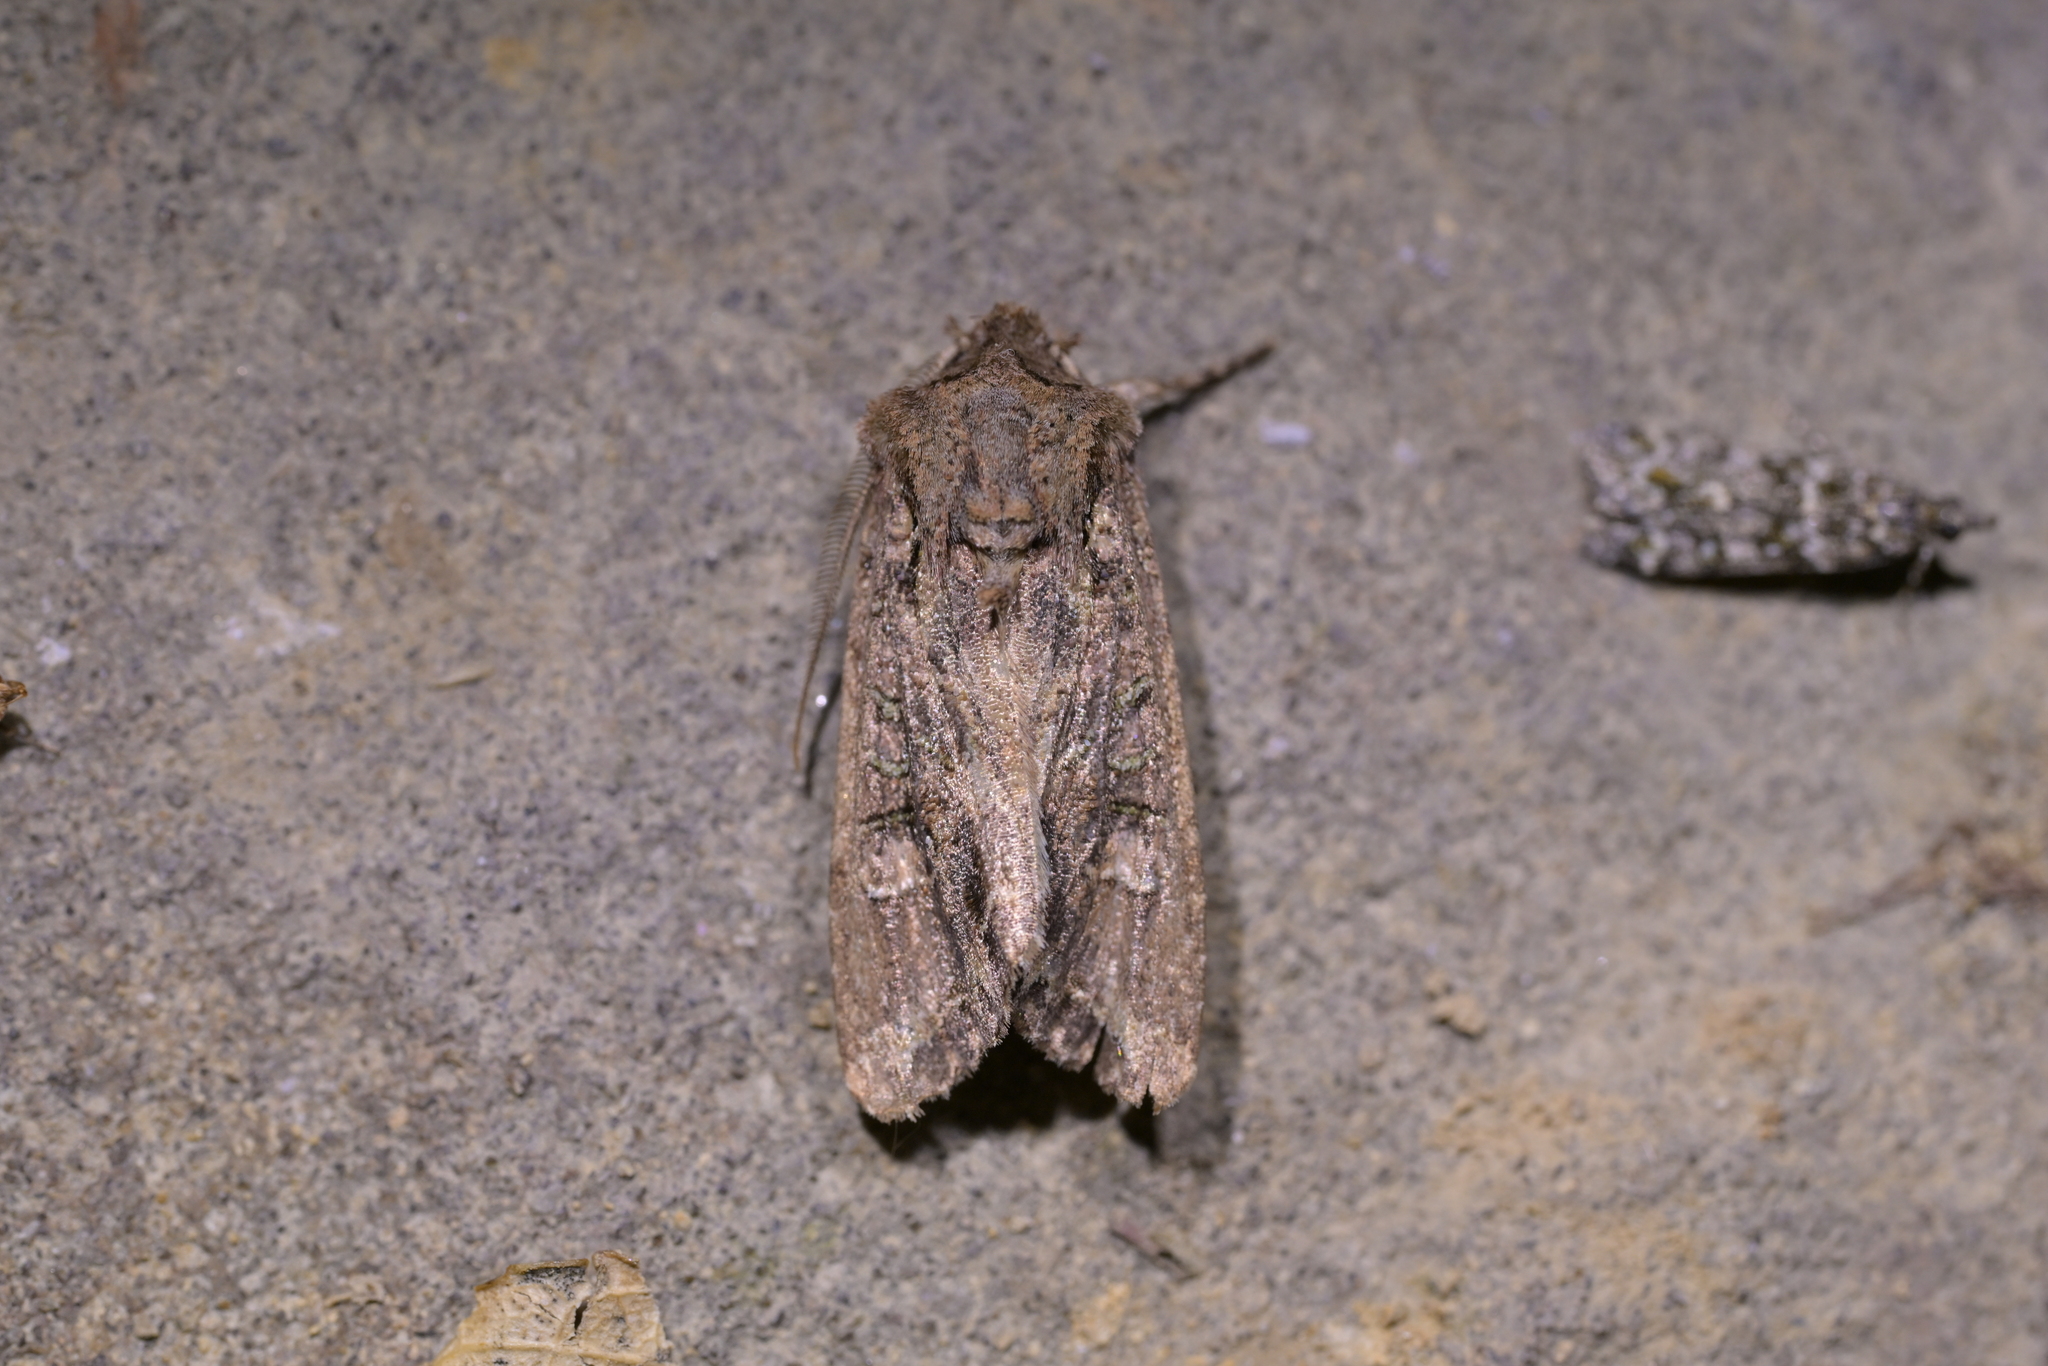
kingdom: Animalia
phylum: Arthropoda
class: Insecta
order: Lepidoptera
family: Noctuidae
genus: Ichneutica
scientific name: Ichneutica insignis
